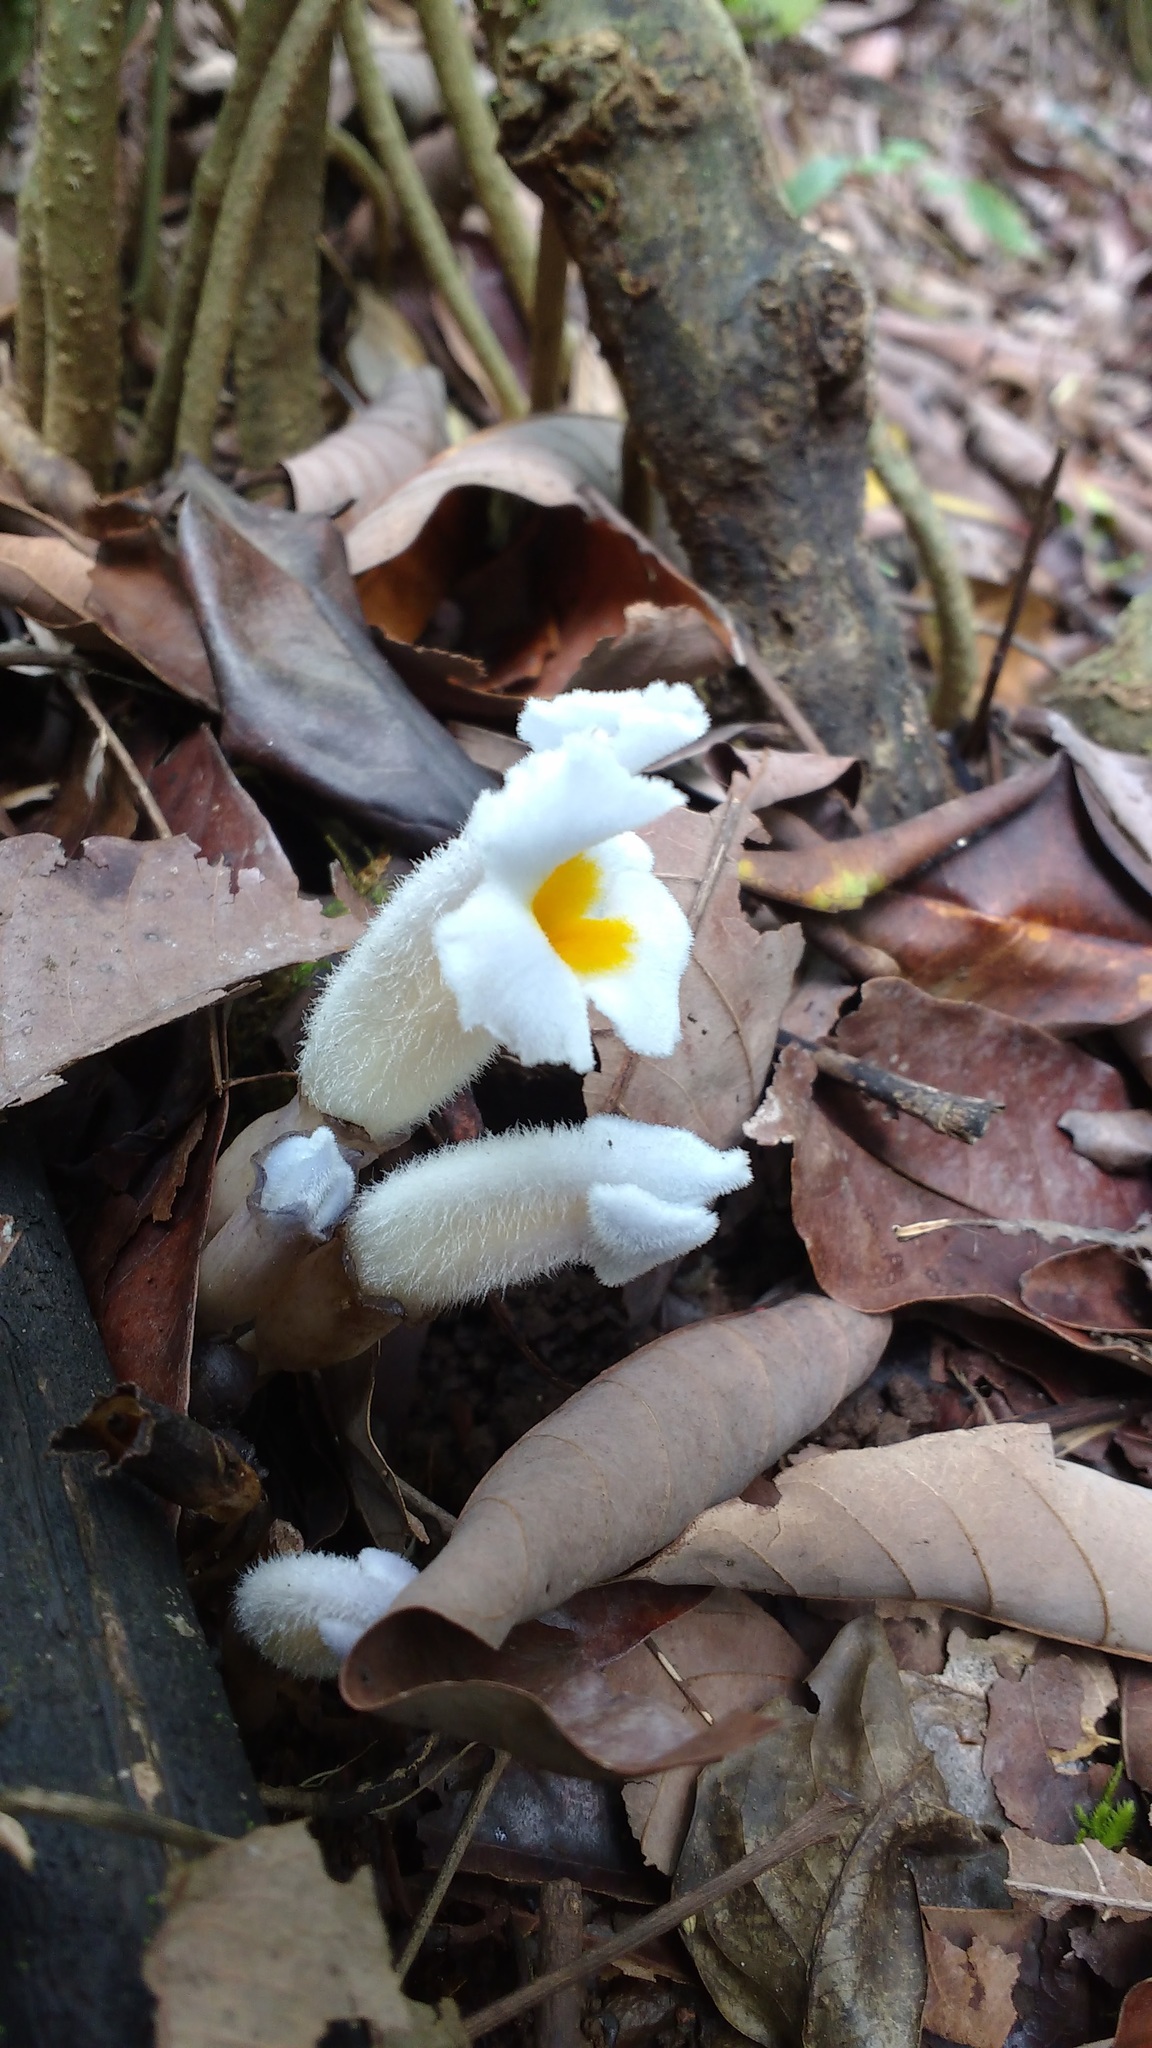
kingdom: Plantae
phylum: Tracheophyta
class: Magnoliopsida
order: Lamiales
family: Orobanchaceae
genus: Christisonia
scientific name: Christisonia calcarata
